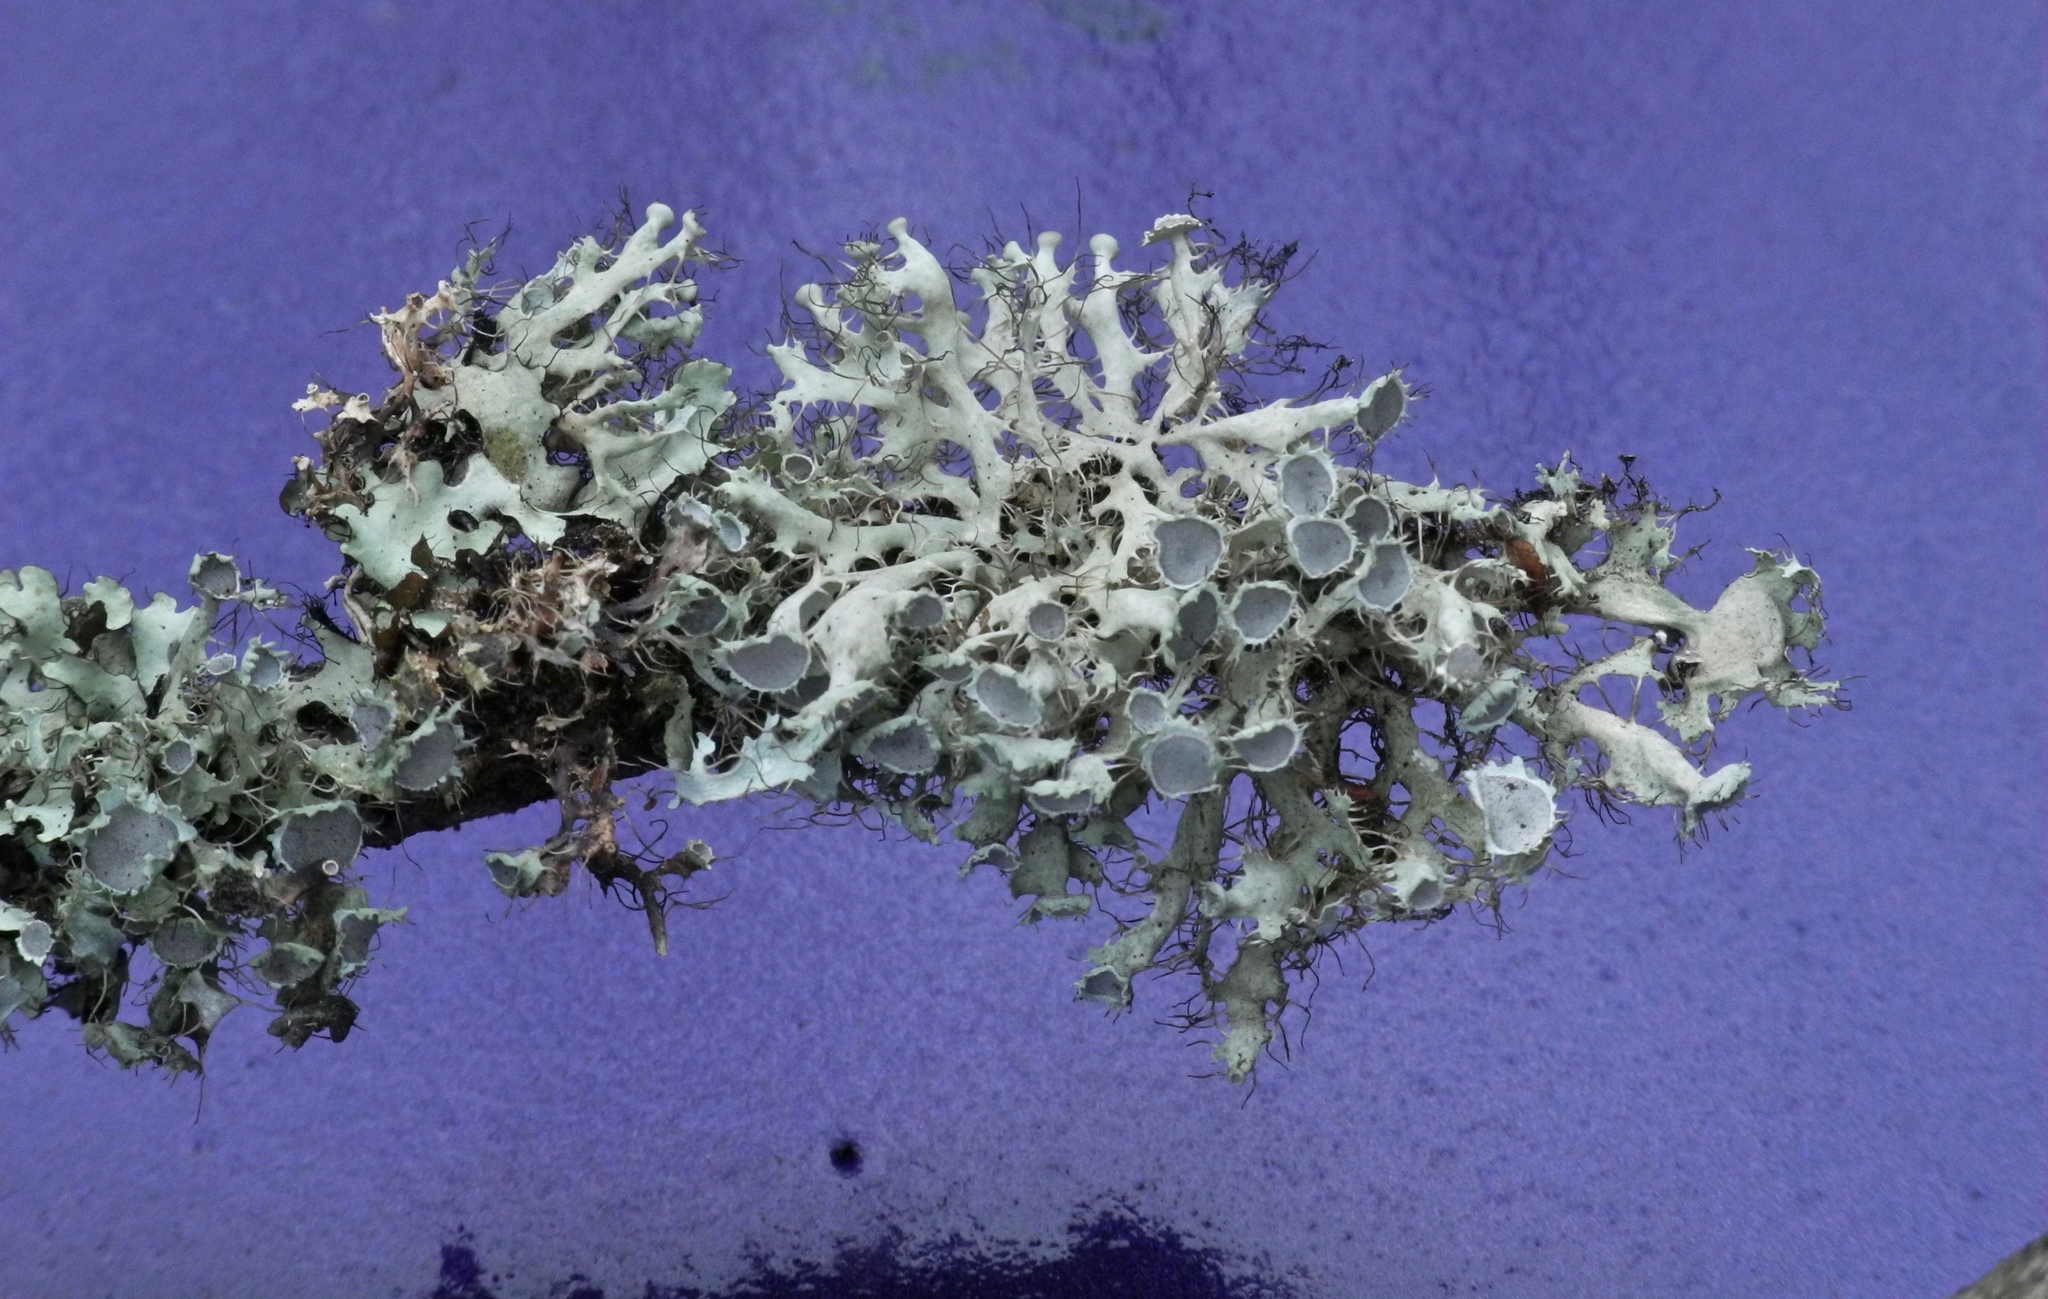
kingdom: Fungi
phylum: Ascomycota
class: Lecanoromycetes
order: Caliciales
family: Physciaceae
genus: Heterodermia
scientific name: Heterodermia echinata
